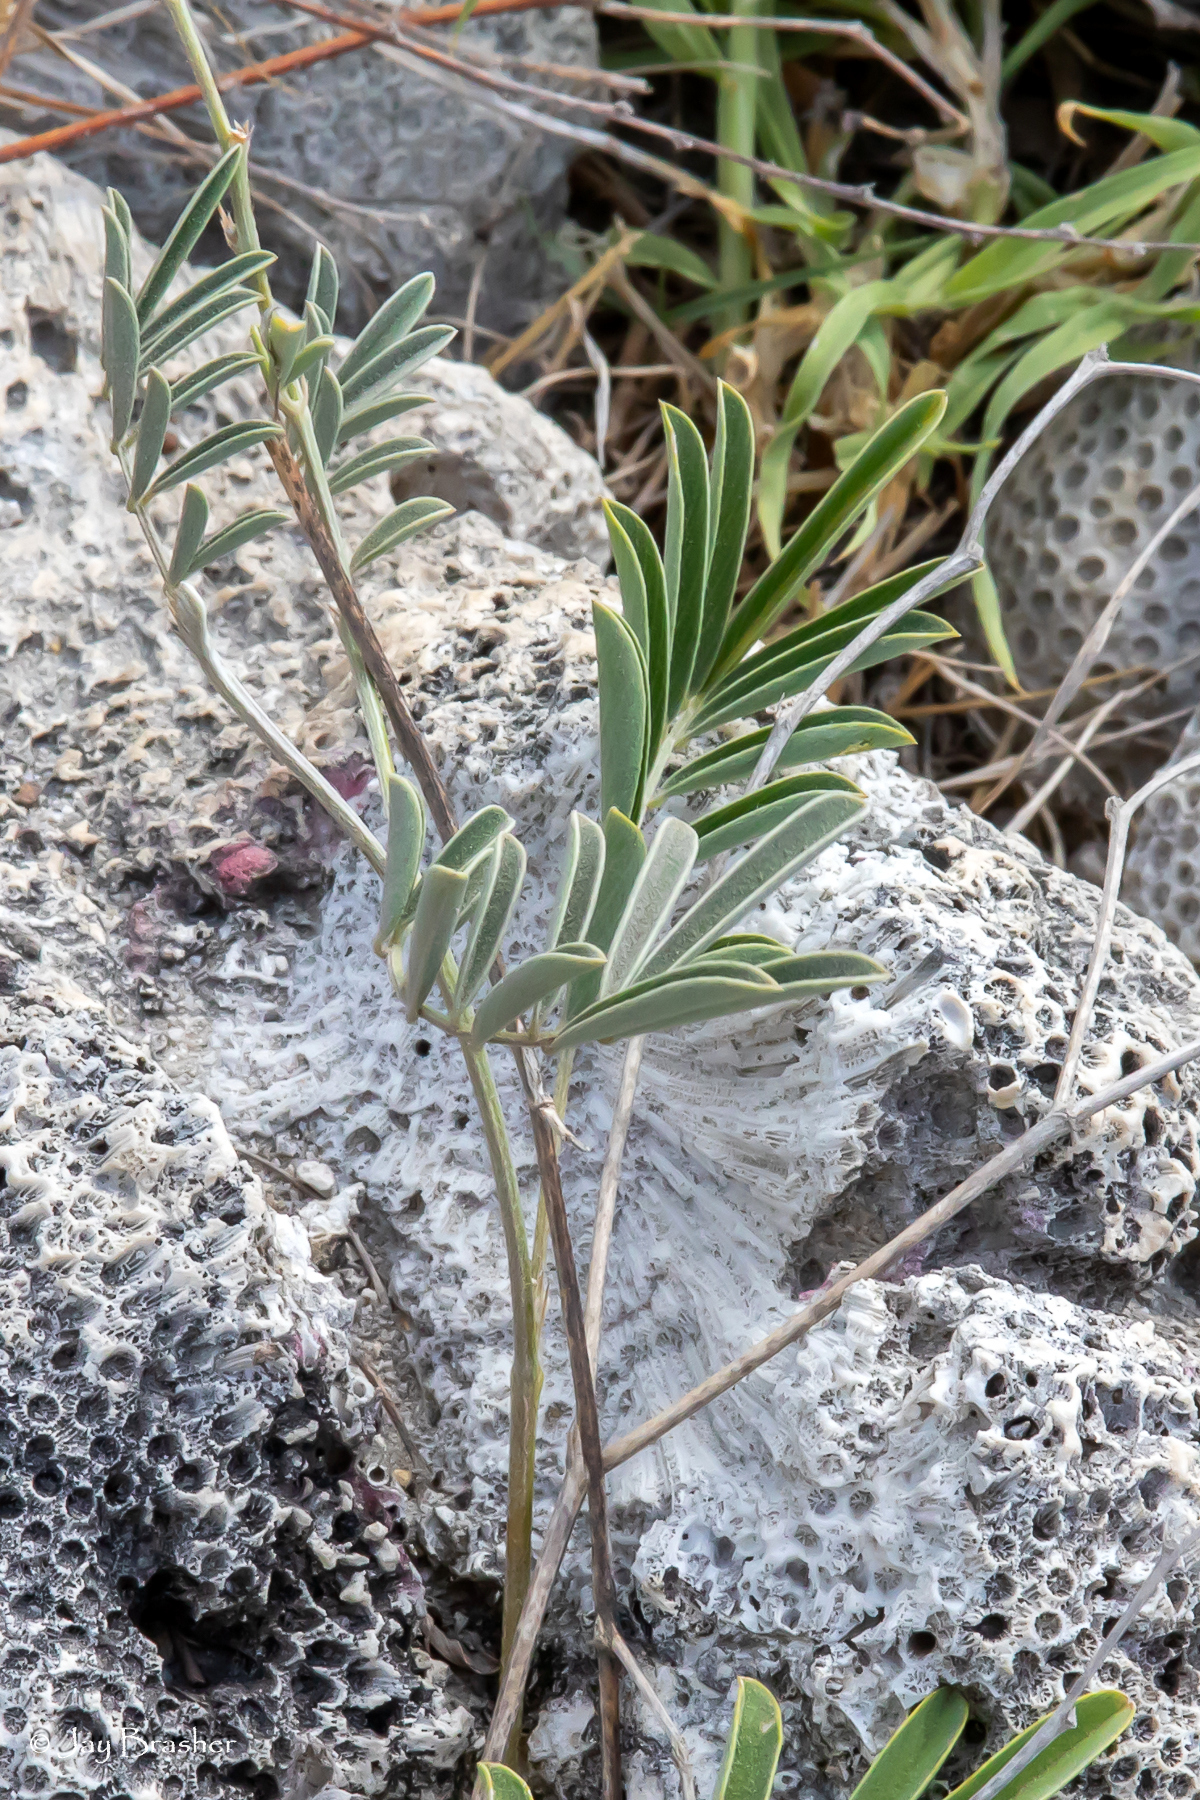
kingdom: Plantae
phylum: Tracheophyta
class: Magnoliopsida
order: Fabales
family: Fabaceae
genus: Tephrosia
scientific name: Tephrosia cinerea
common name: Ashen hoarypea
